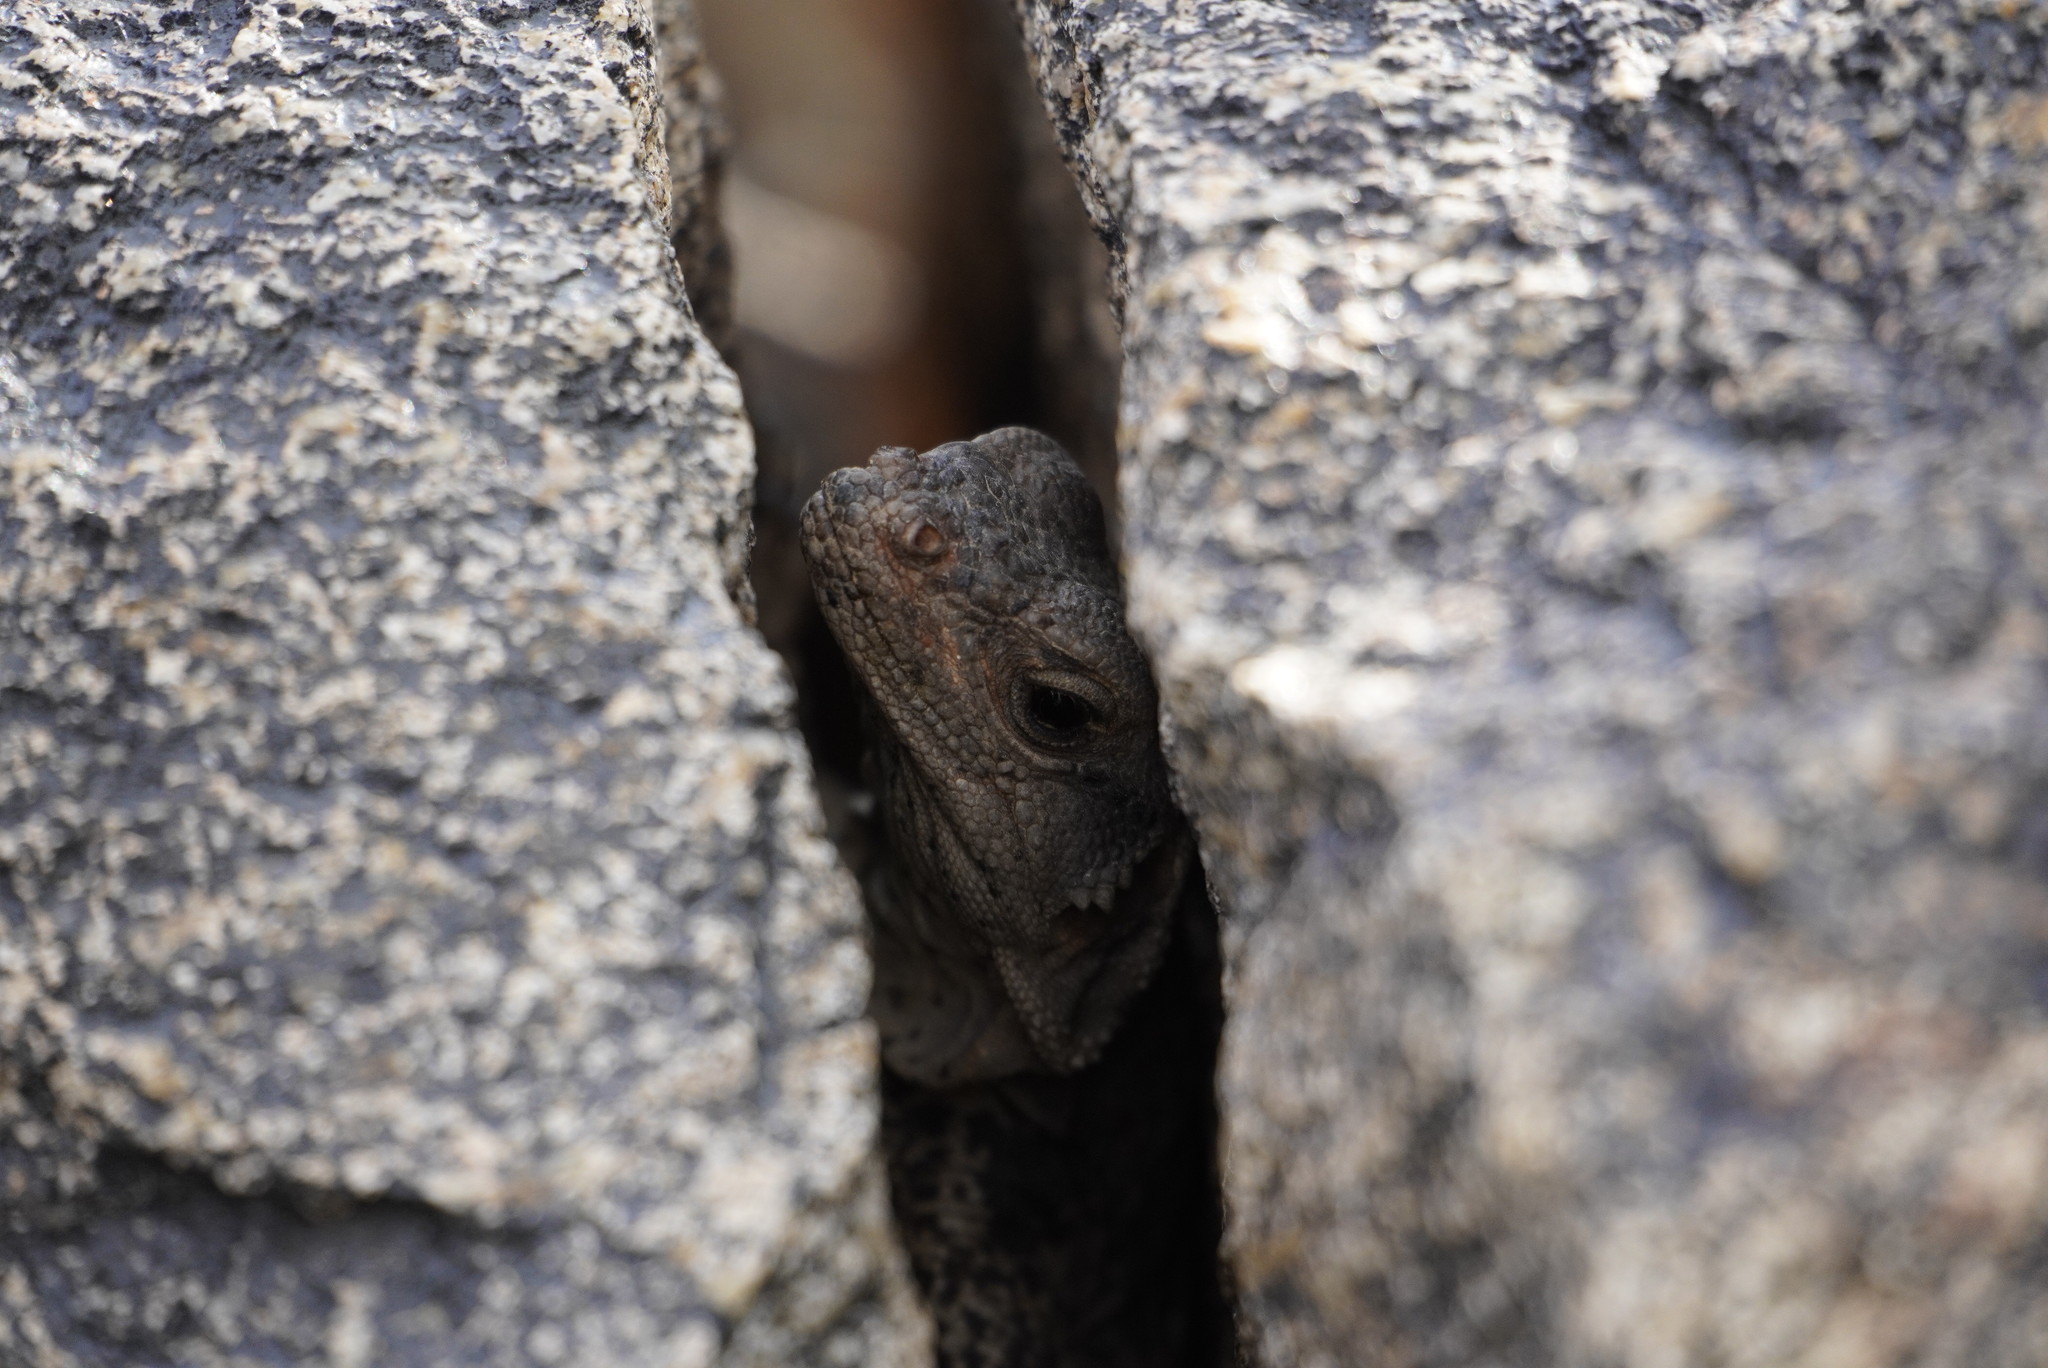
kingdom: Animalia
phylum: Chordata
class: Squamata
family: Iguanidae
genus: Sauromalus
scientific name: Sauromalus ater
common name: Northern chuckwalla
